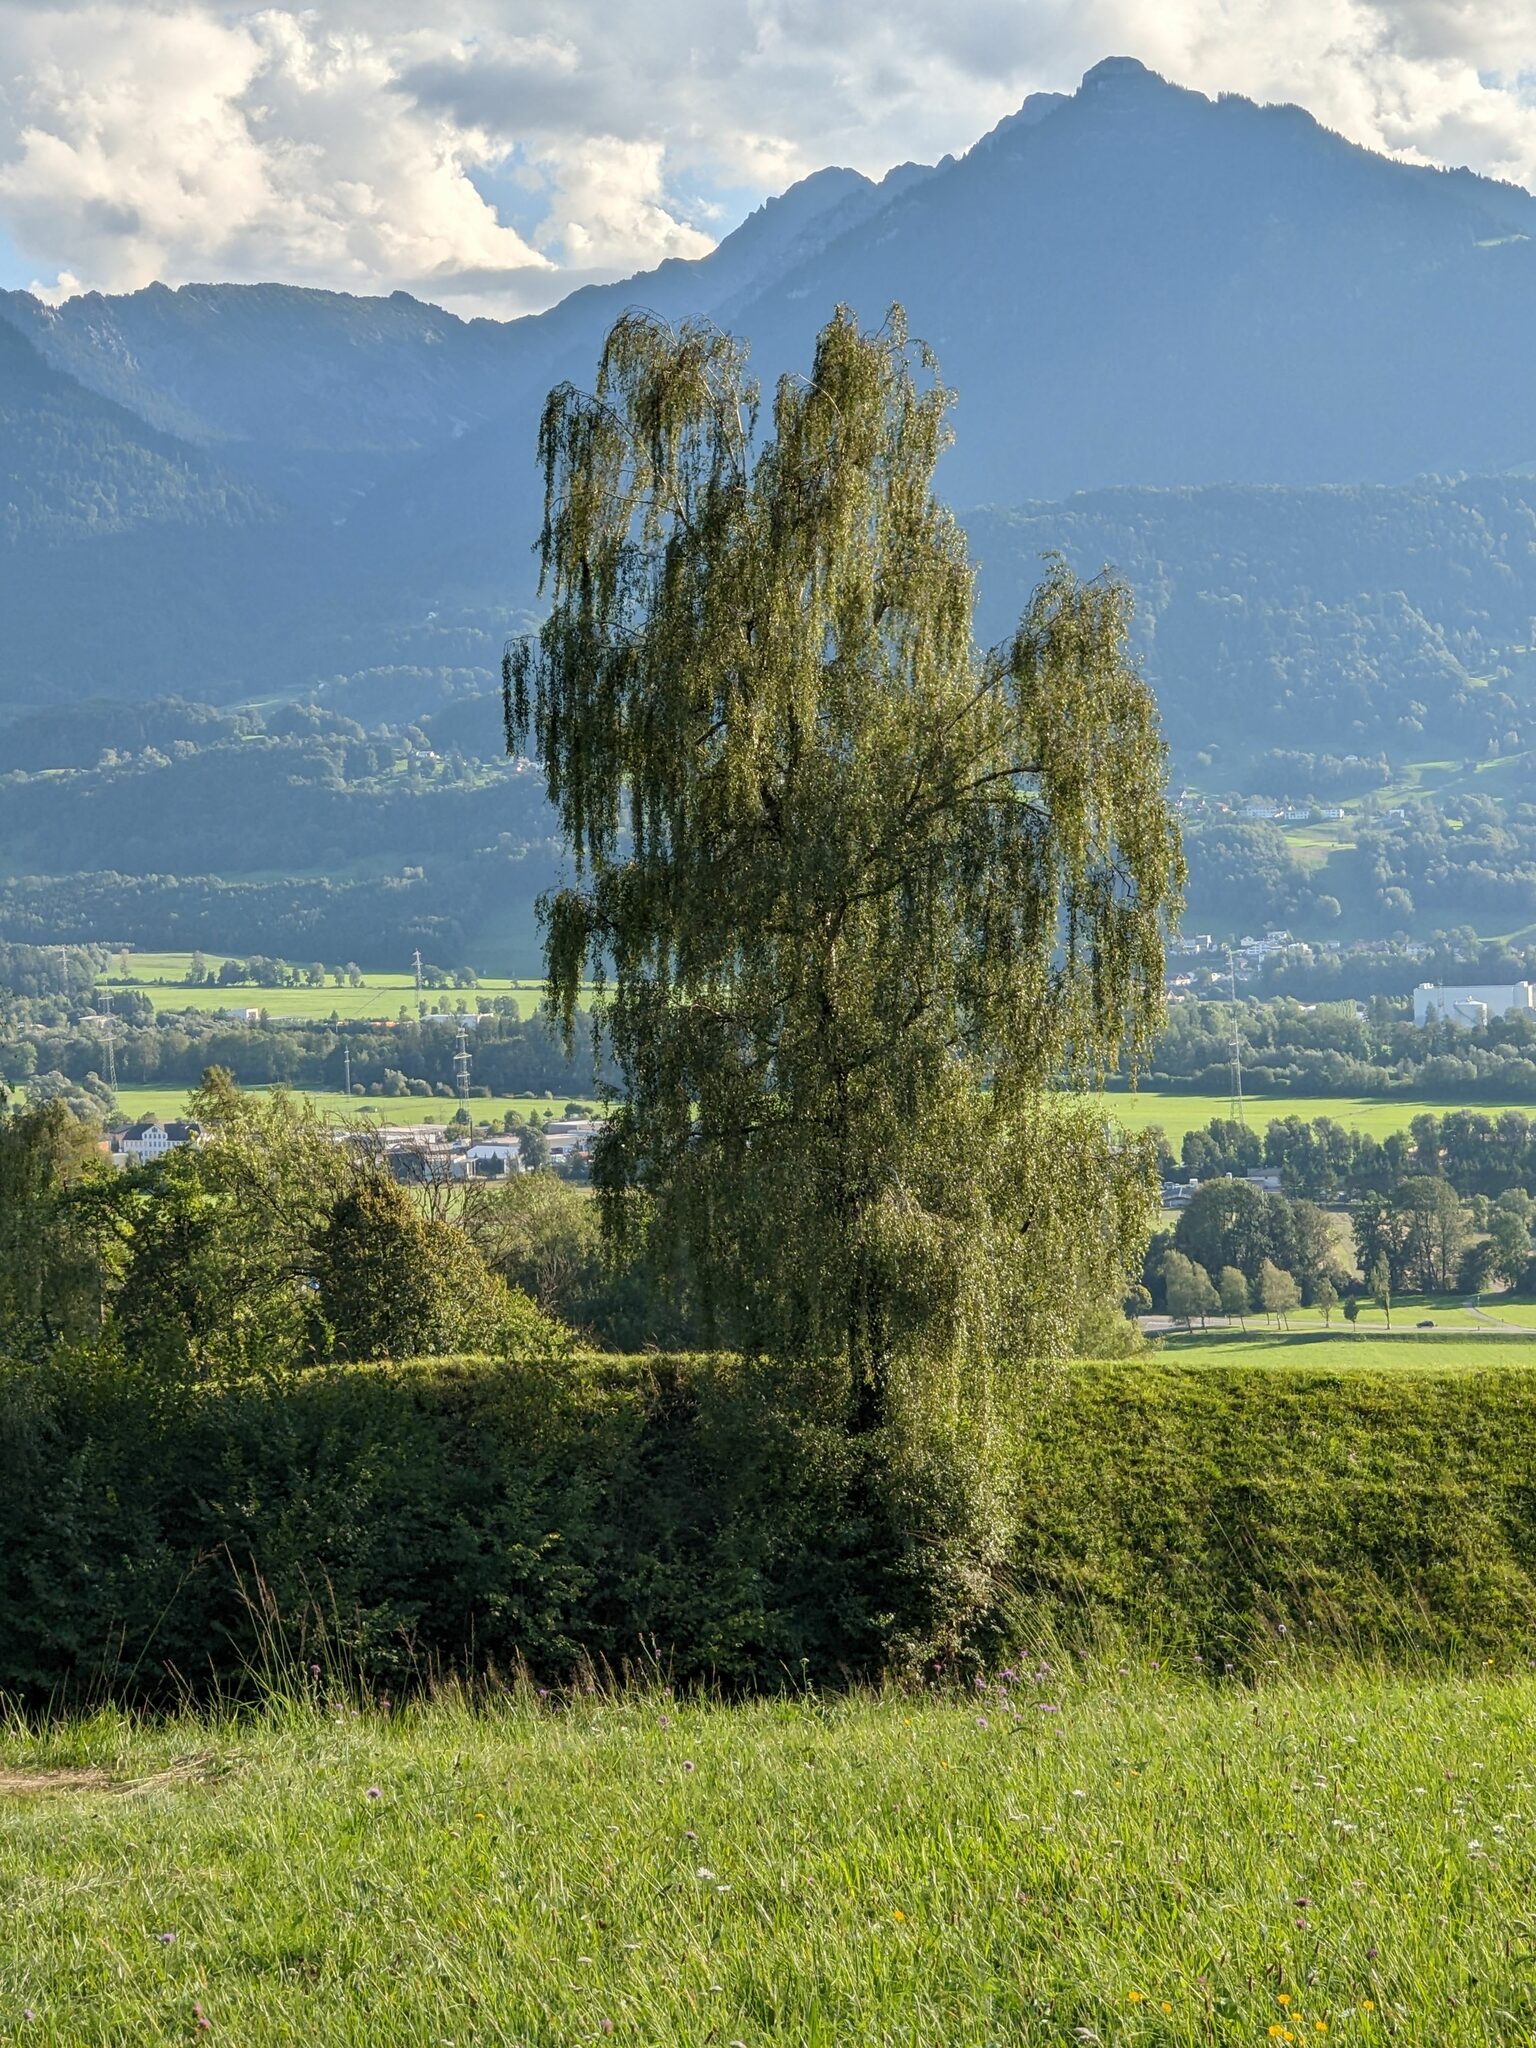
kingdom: Plantae
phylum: Tracheophyta
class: Magnoliopsida
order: Fagales
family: Betulaceae
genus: Betula
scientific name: Betula pendula
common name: Silver birch
